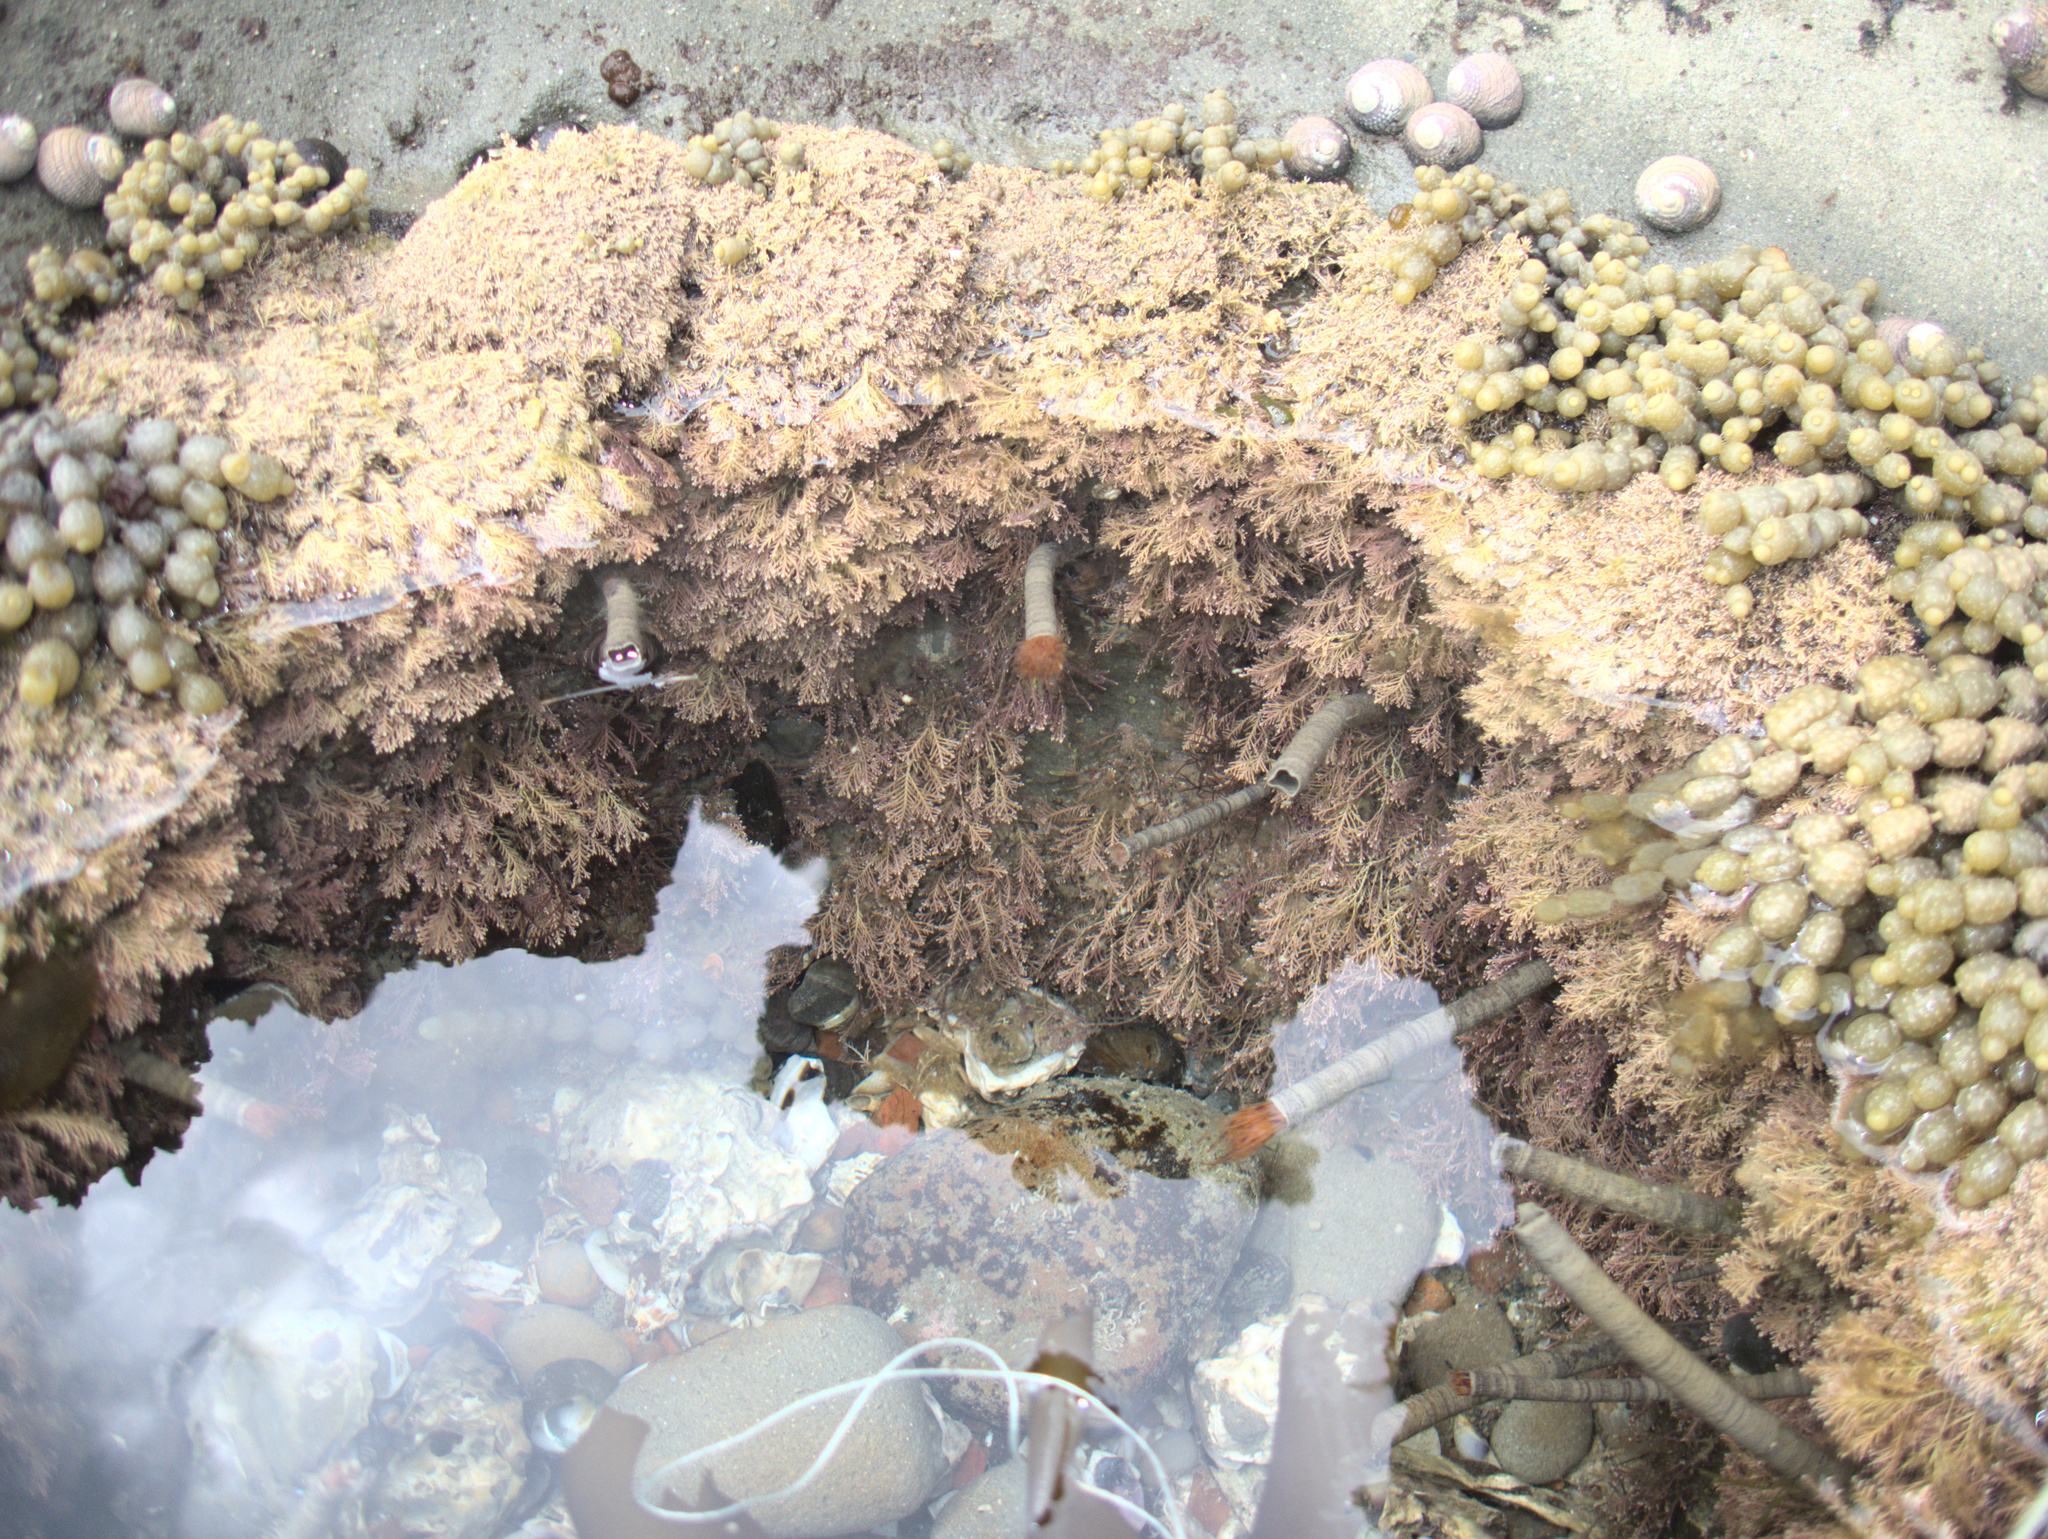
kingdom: Animalia
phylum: Annelida
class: Polychaeta
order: Sabellida
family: Sabellidae
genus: Sabella
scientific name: Sabella spallanzanii
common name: Feather duster worm
